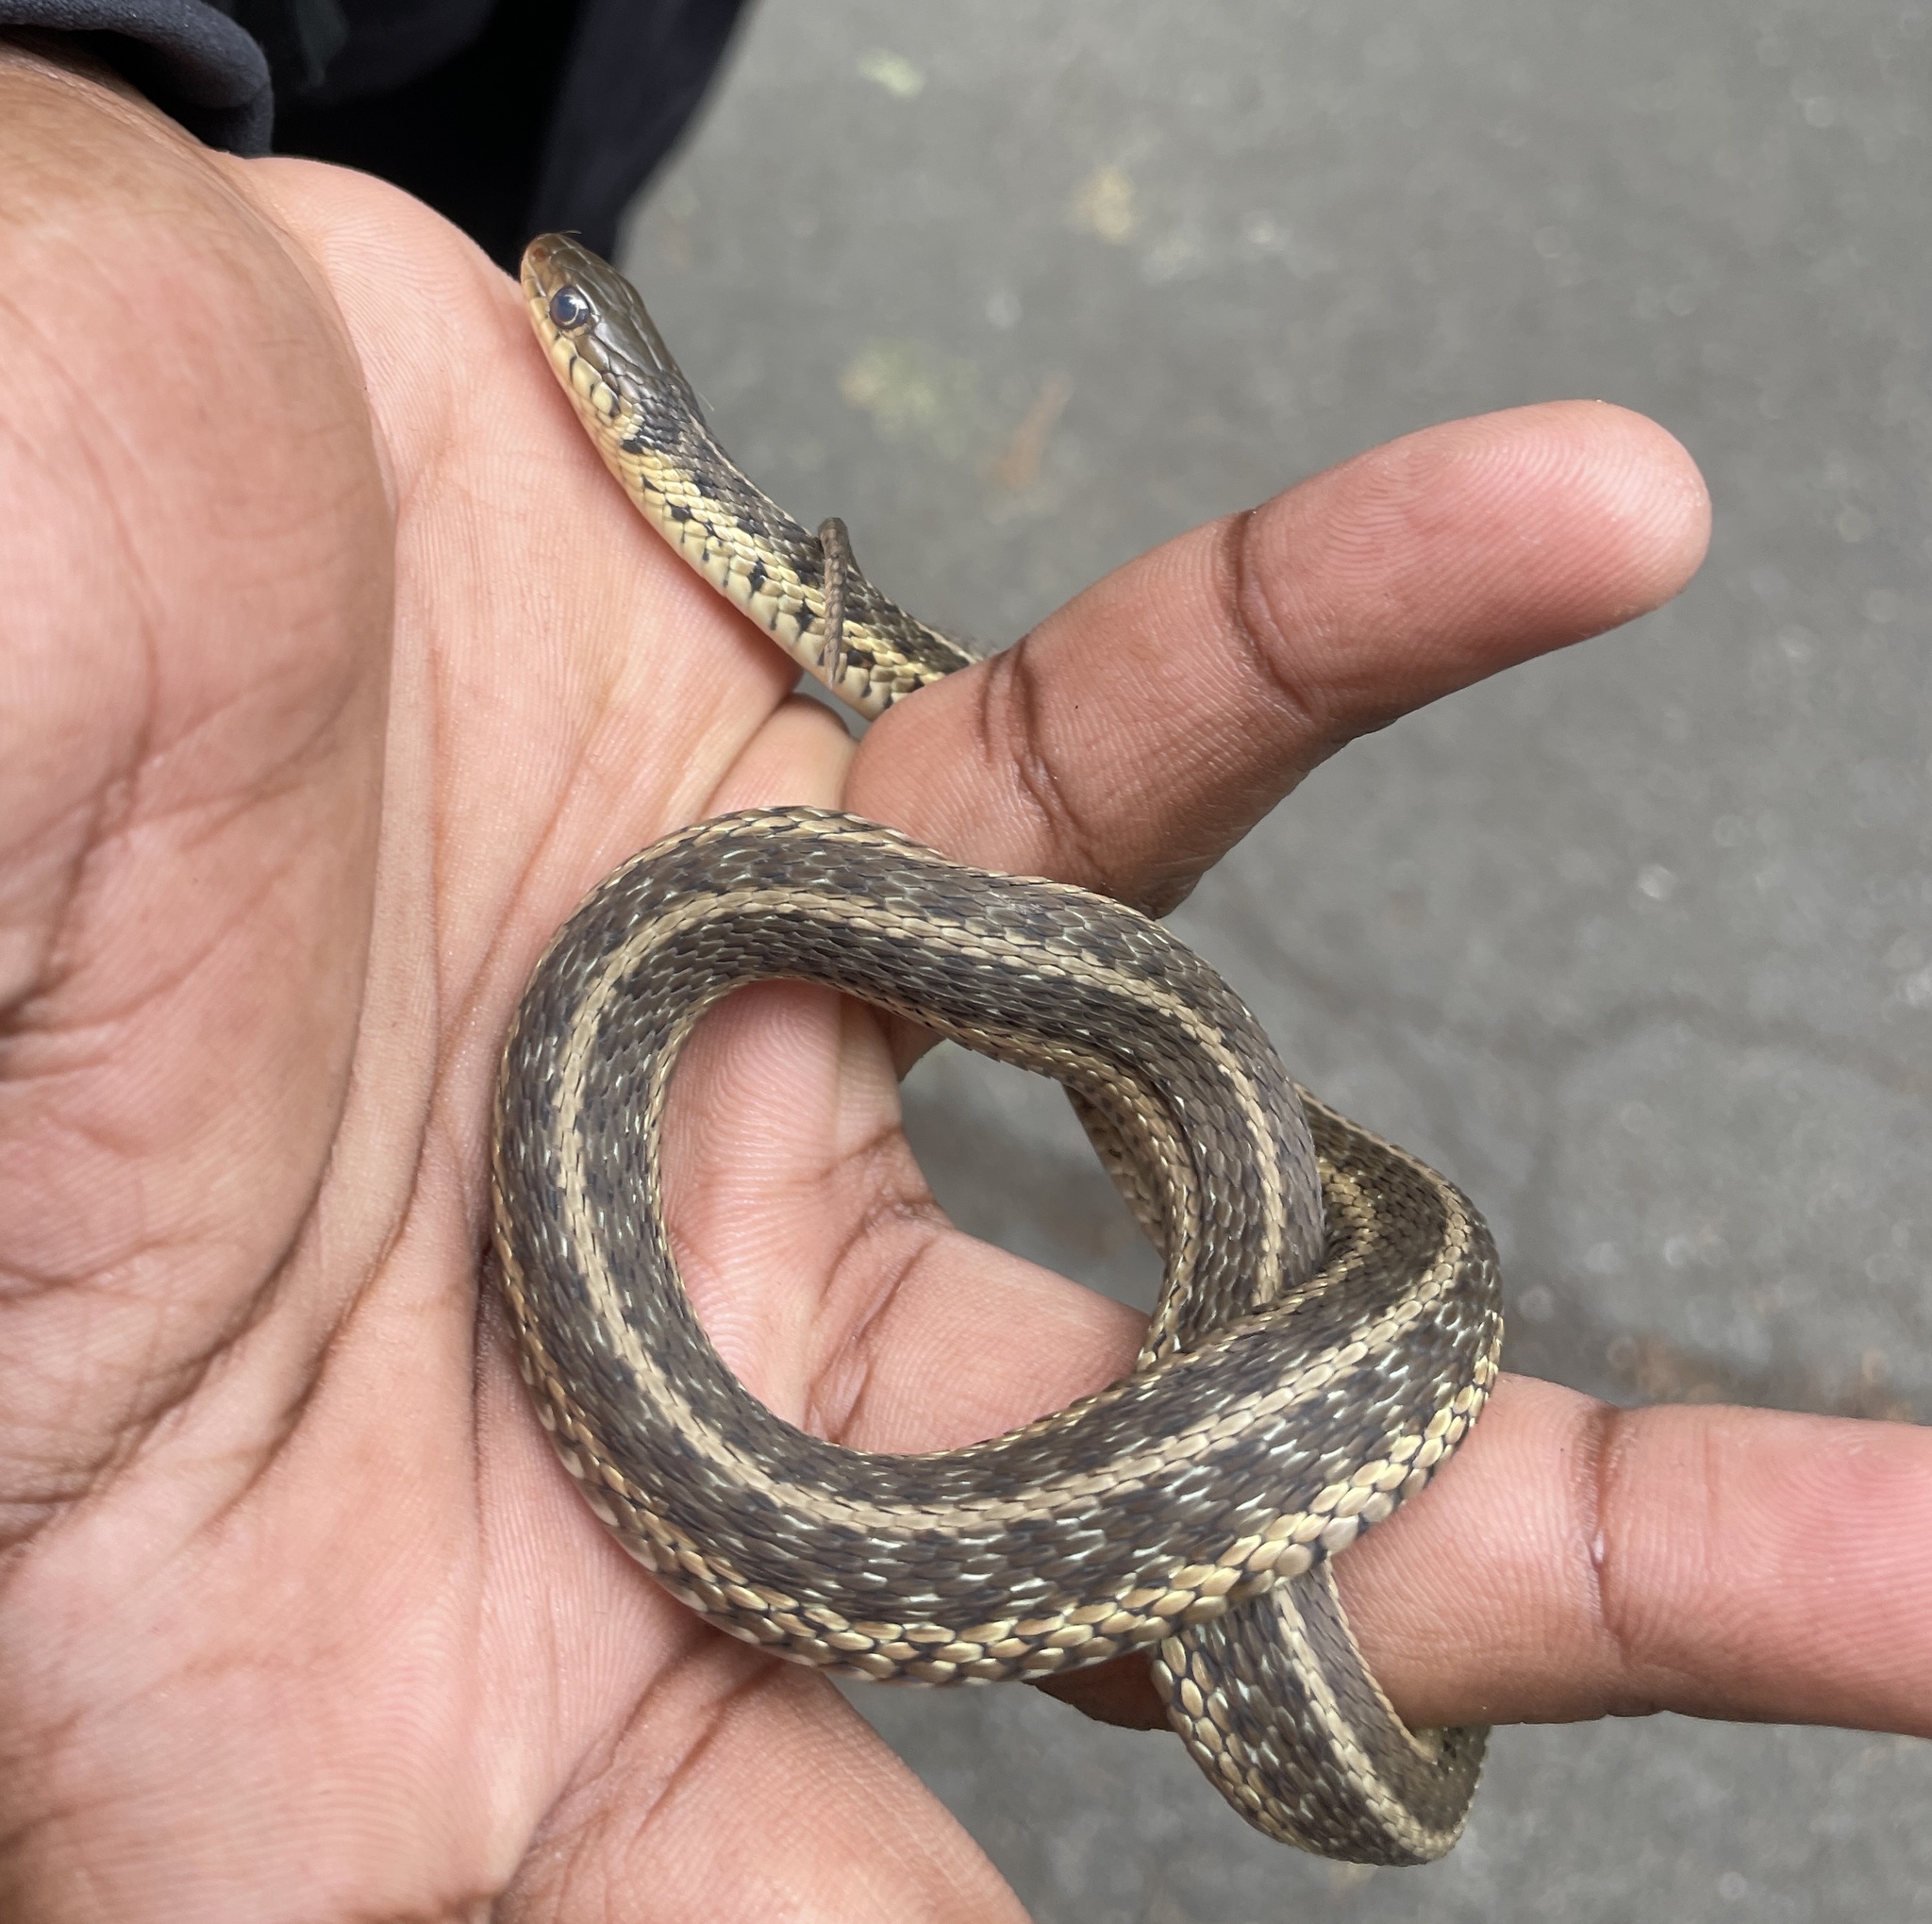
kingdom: Animalia
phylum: Chordata
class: Squamata
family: Colubridae
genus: Thamnophis
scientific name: Thamnophis sirtalis
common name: Common garter snake
